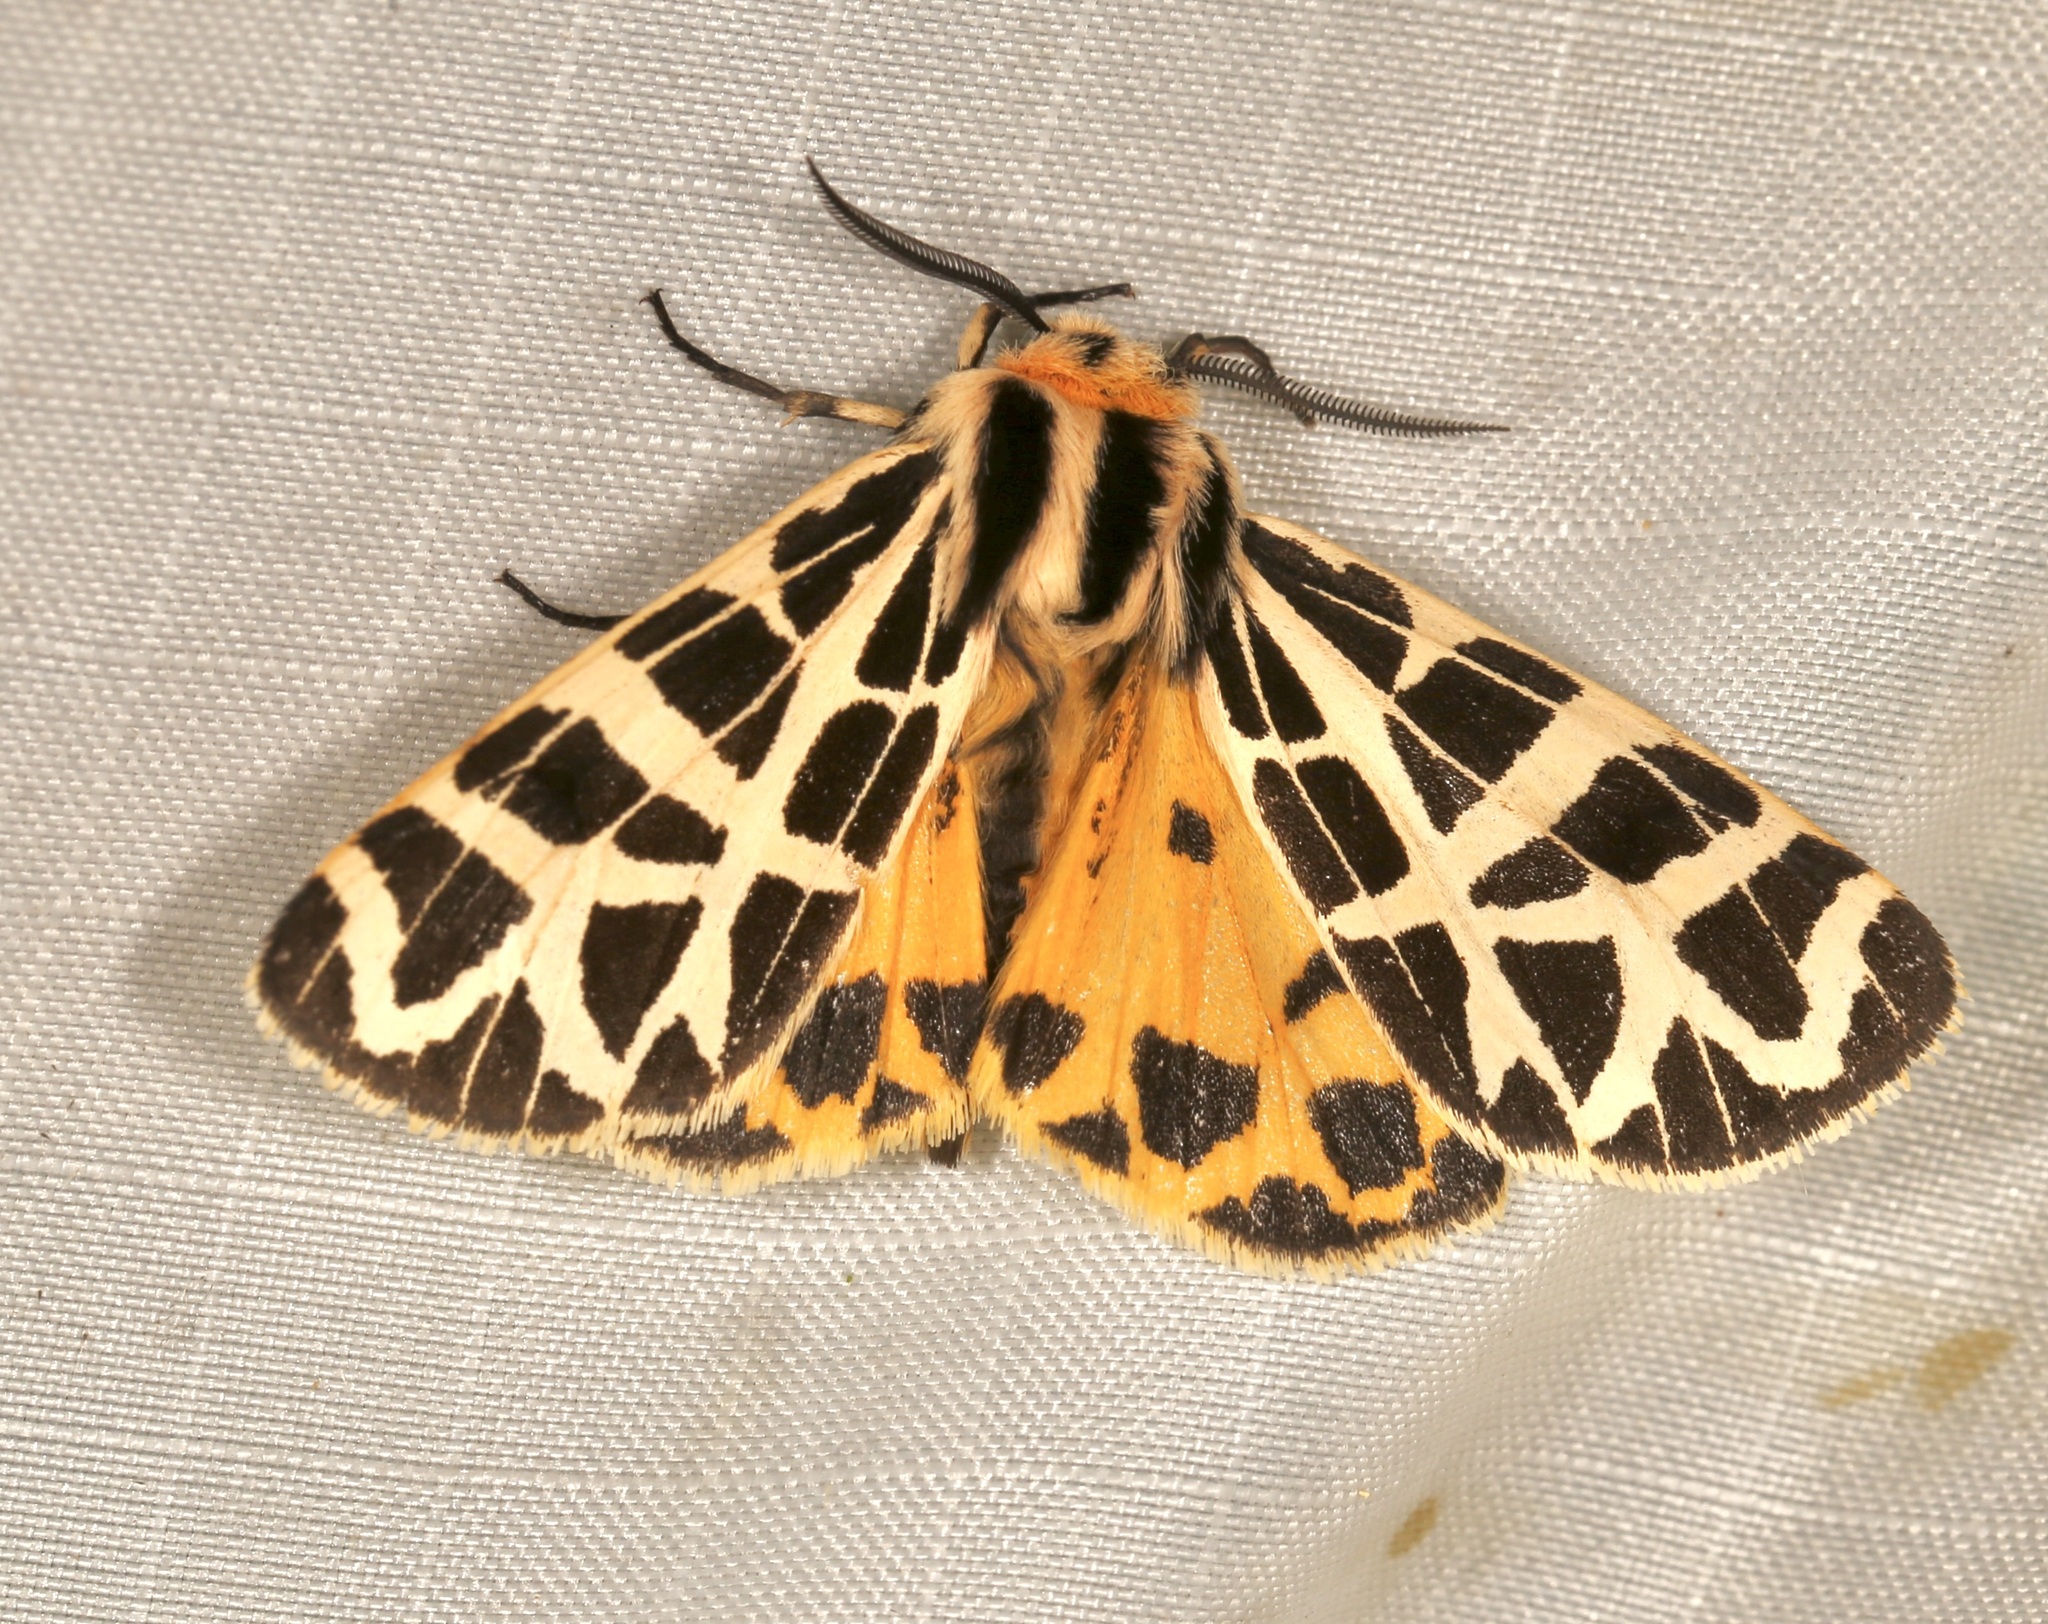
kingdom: Animalia
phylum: Arthropoda
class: Insecta
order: Lepidoptera
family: Erebidae
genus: Apantesis
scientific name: Apantesis
